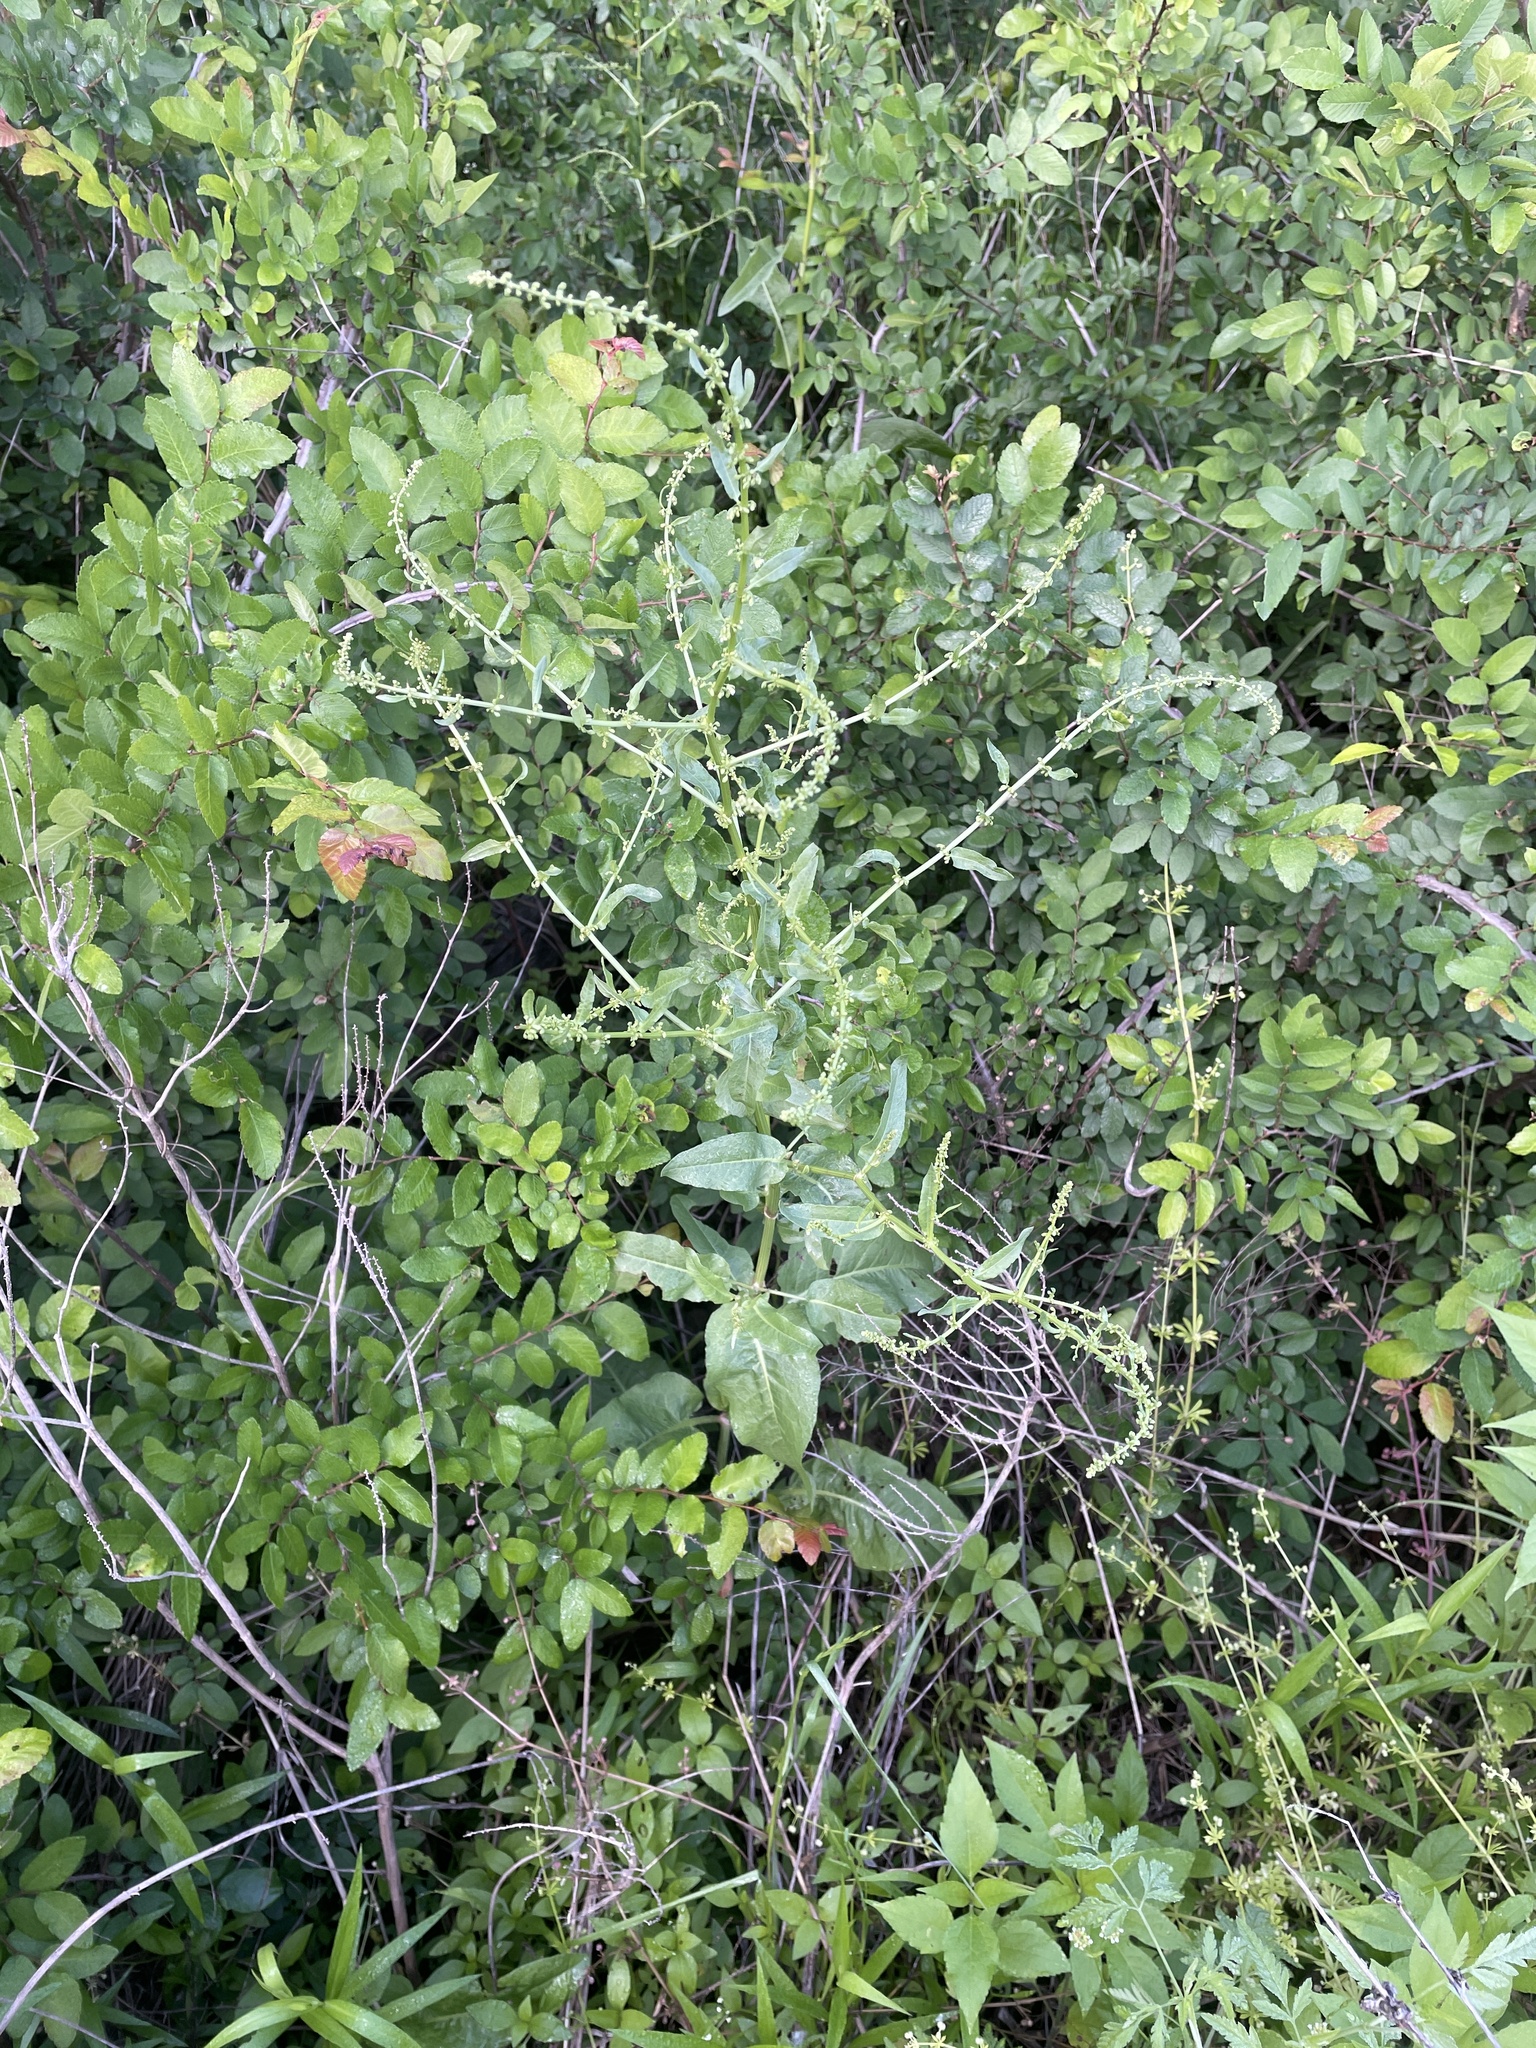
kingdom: Plantae
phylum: Tracheophyta
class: Magnoliopsida
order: Caryophyllales
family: Polygonaceae
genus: Rumex
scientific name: Rumex pulcher
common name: Fiddle dock
